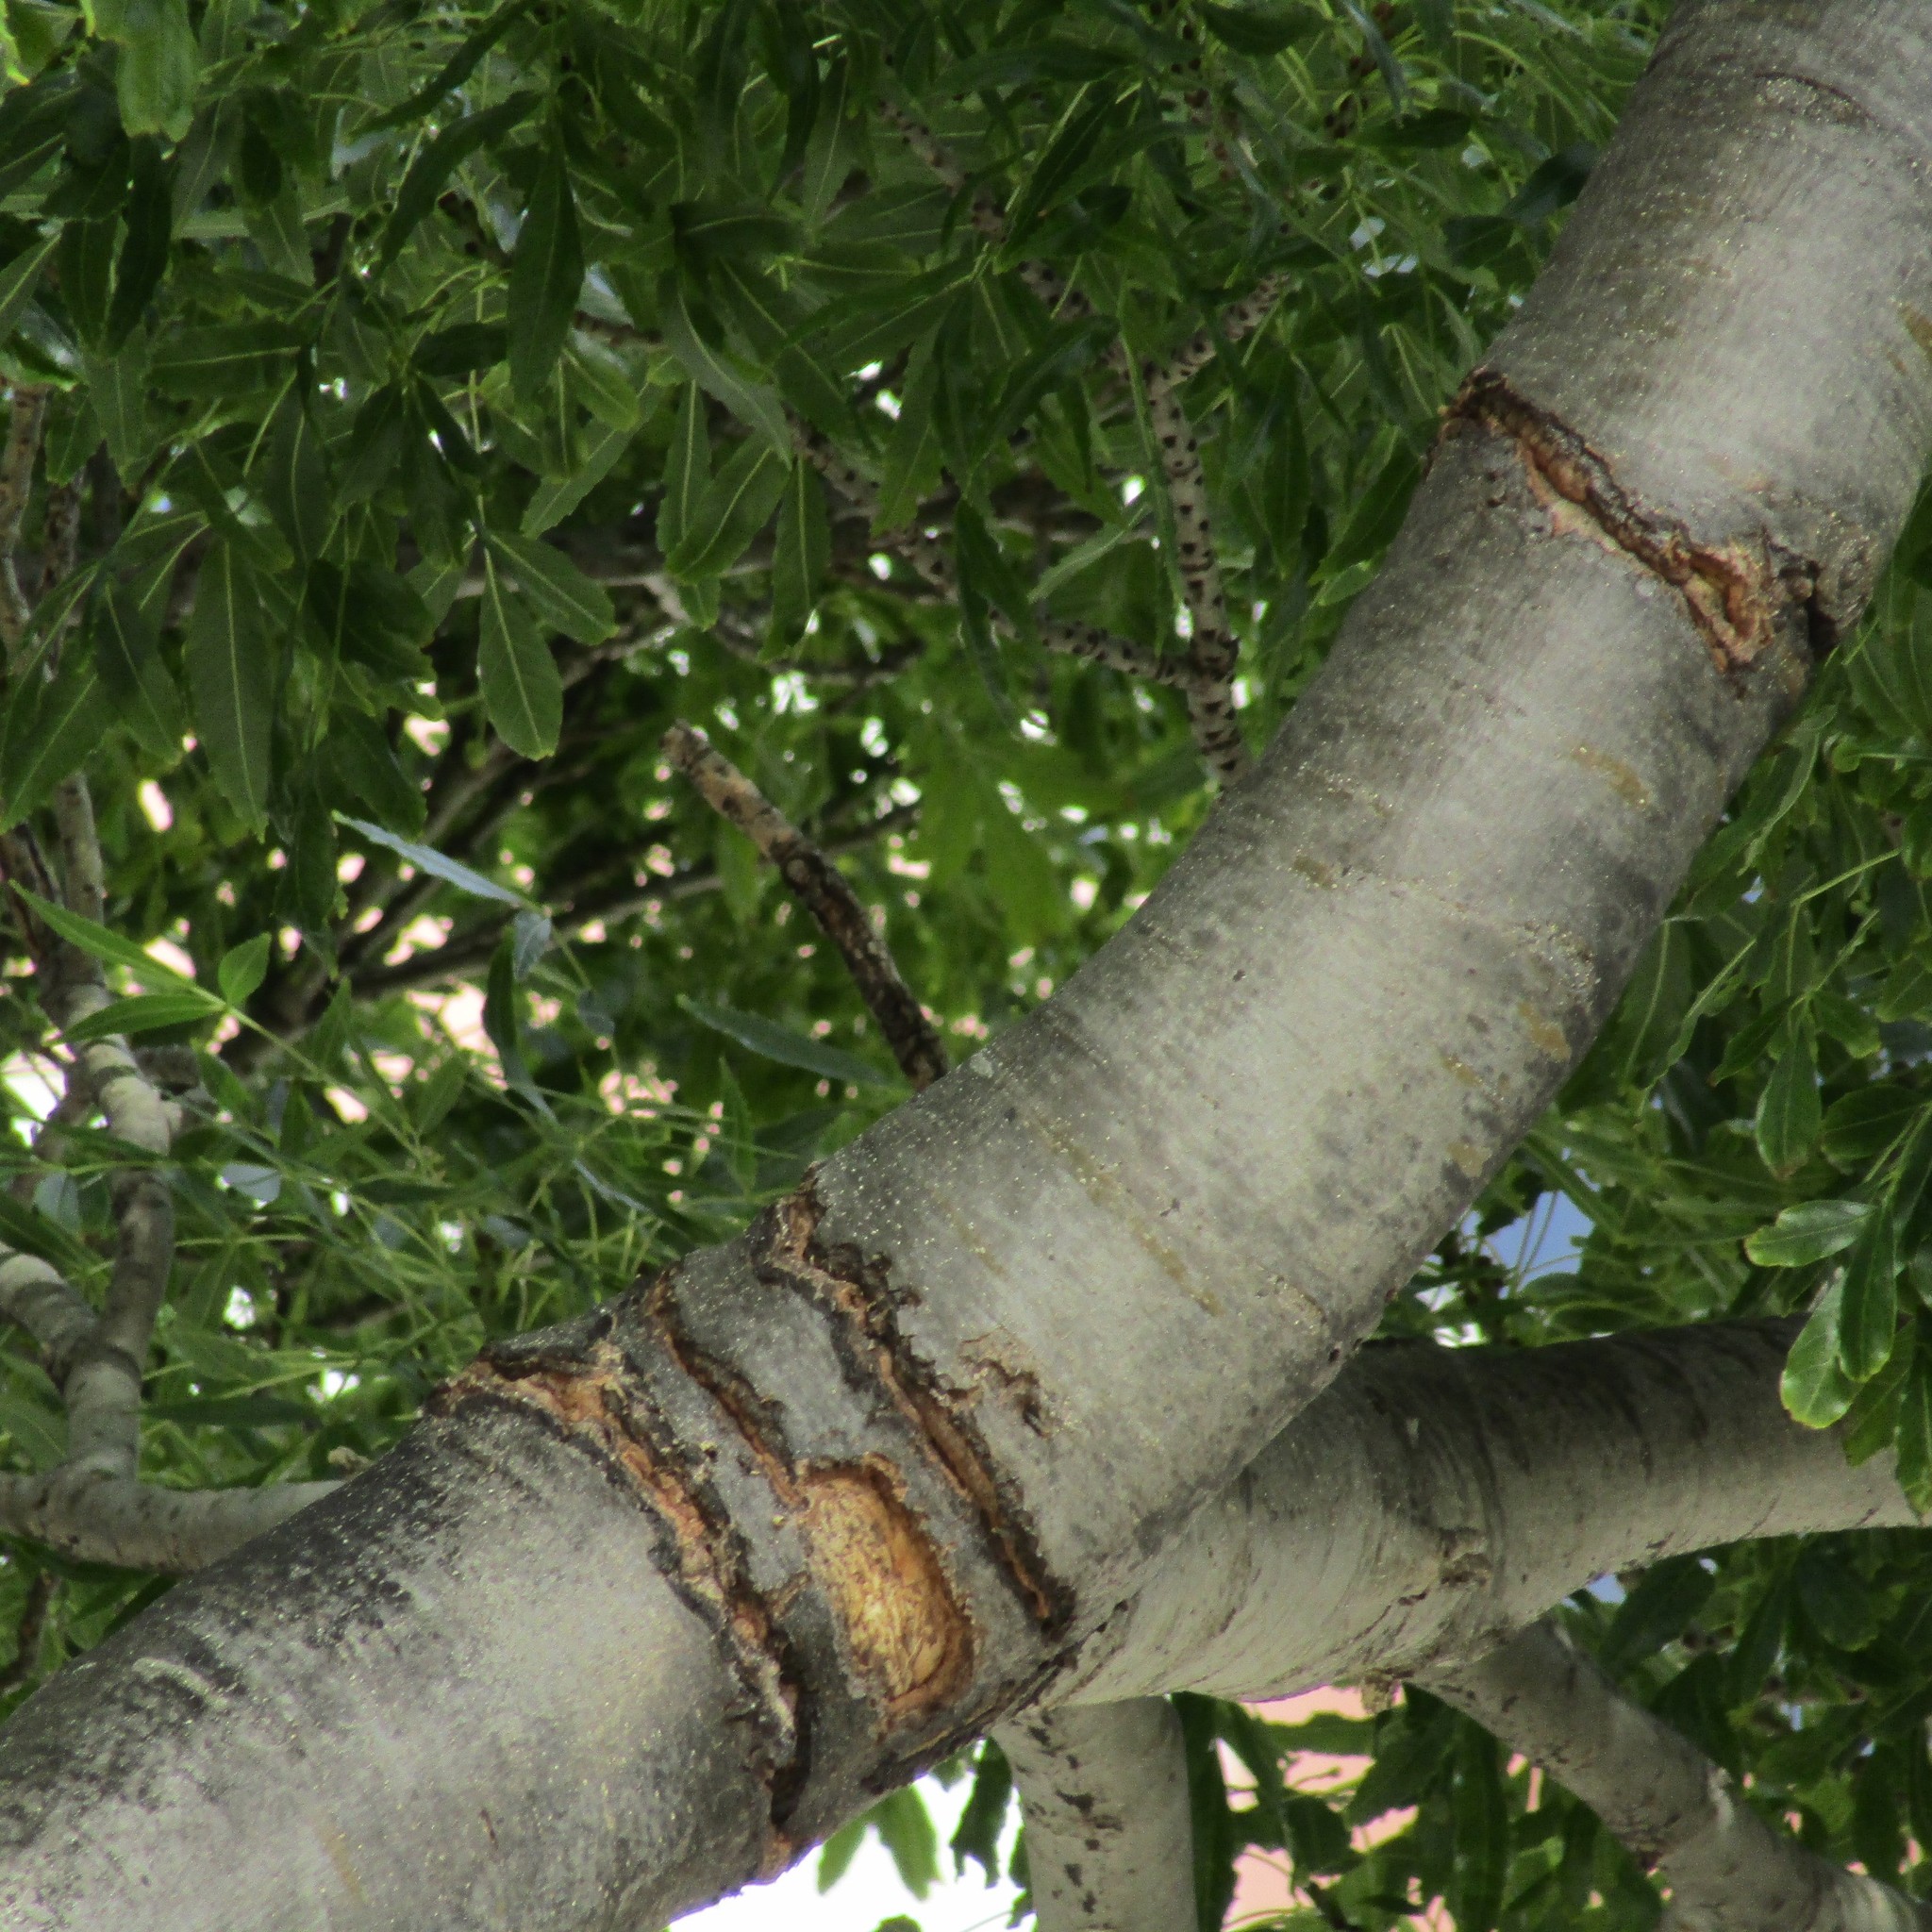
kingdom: Animalia
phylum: Chordata
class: Aves
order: Psittaciformes
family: Psittacidae
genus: Nestor
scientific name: Nestor meridionalis
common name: New zealand kaka
